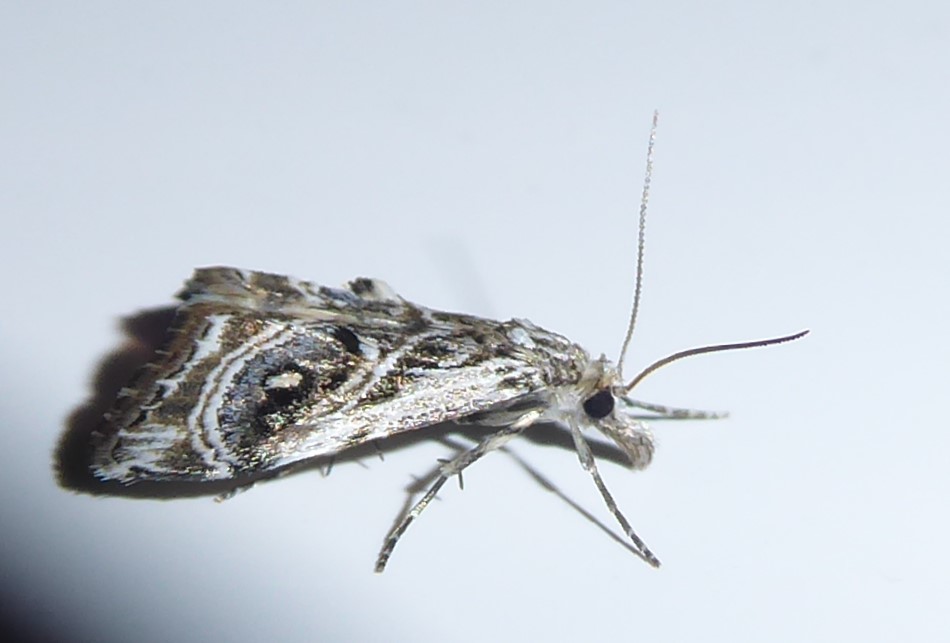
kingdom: Animalia
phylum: Arthropoda
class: Insecta
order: Lepidoptera
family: Crambidae
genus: Gadira
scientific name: Gadira acerella
